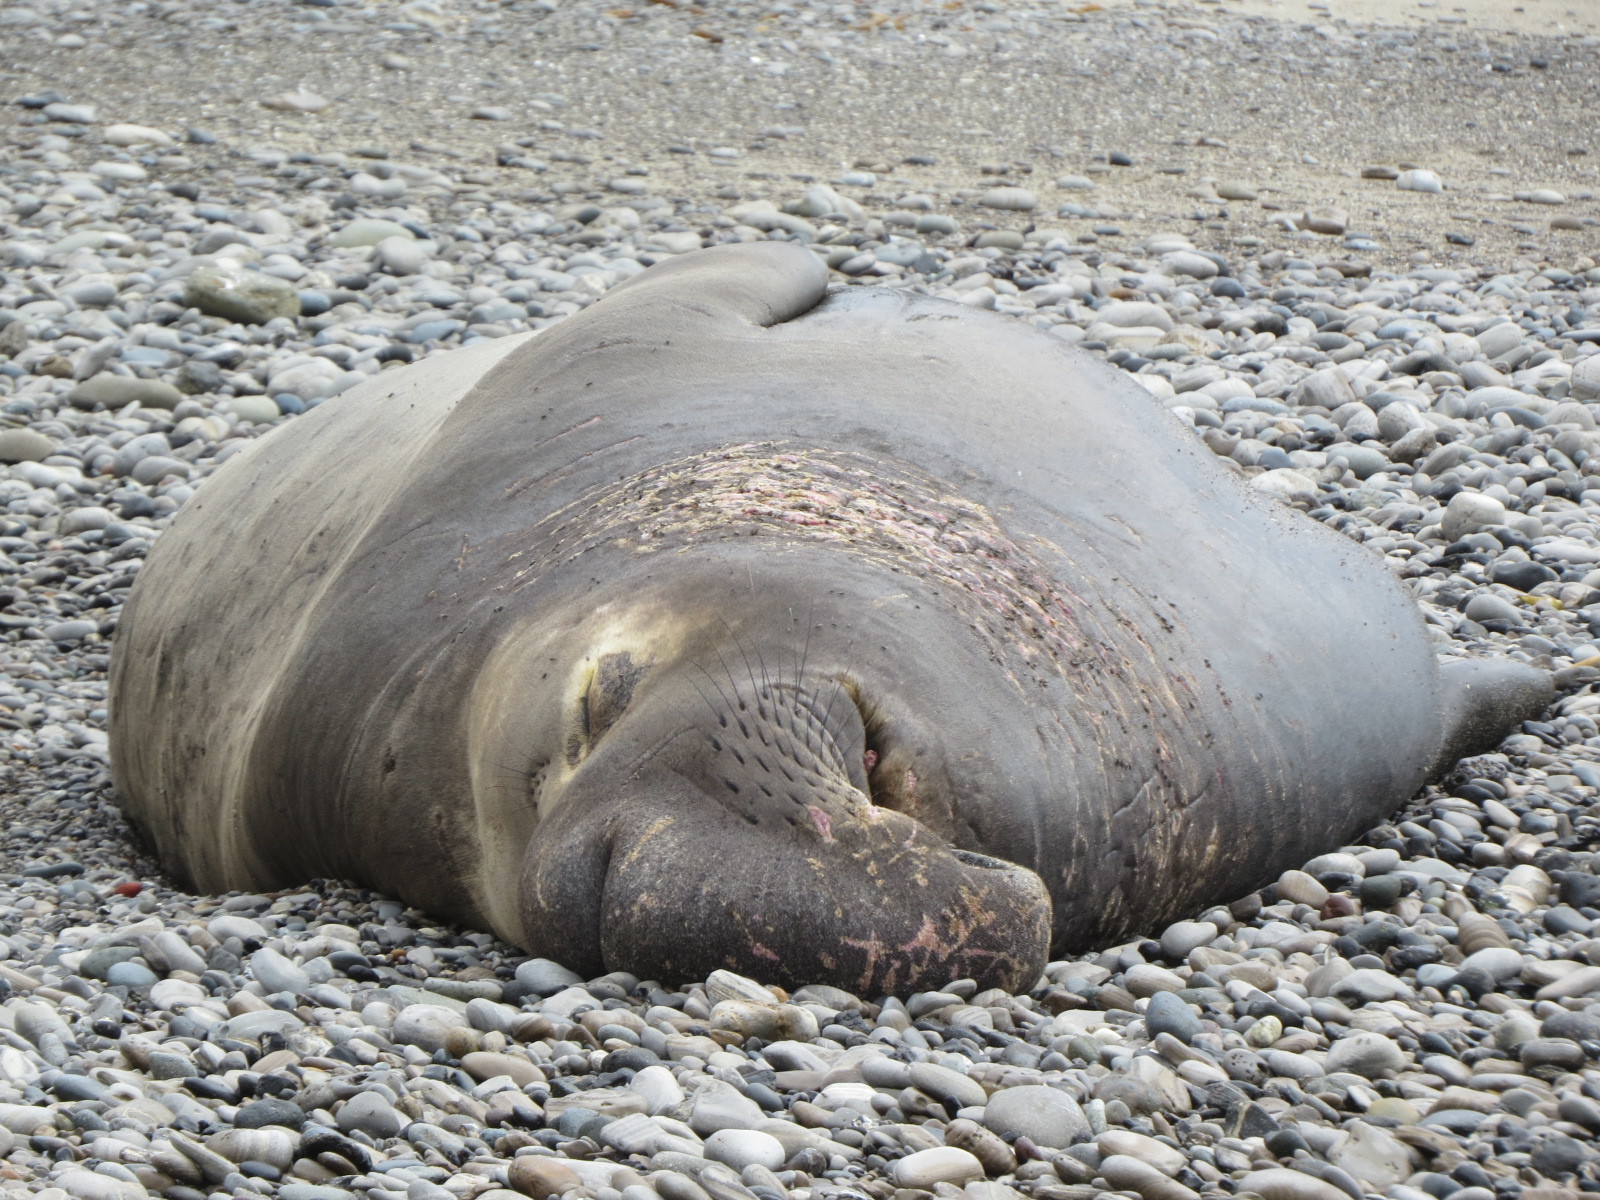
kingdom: Animalia
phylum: Chordata
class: Mammalia
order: Carnivora
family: Phocidae
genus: Mirounga
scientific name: Mirounga angustirostris
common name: Northern elephant seal
